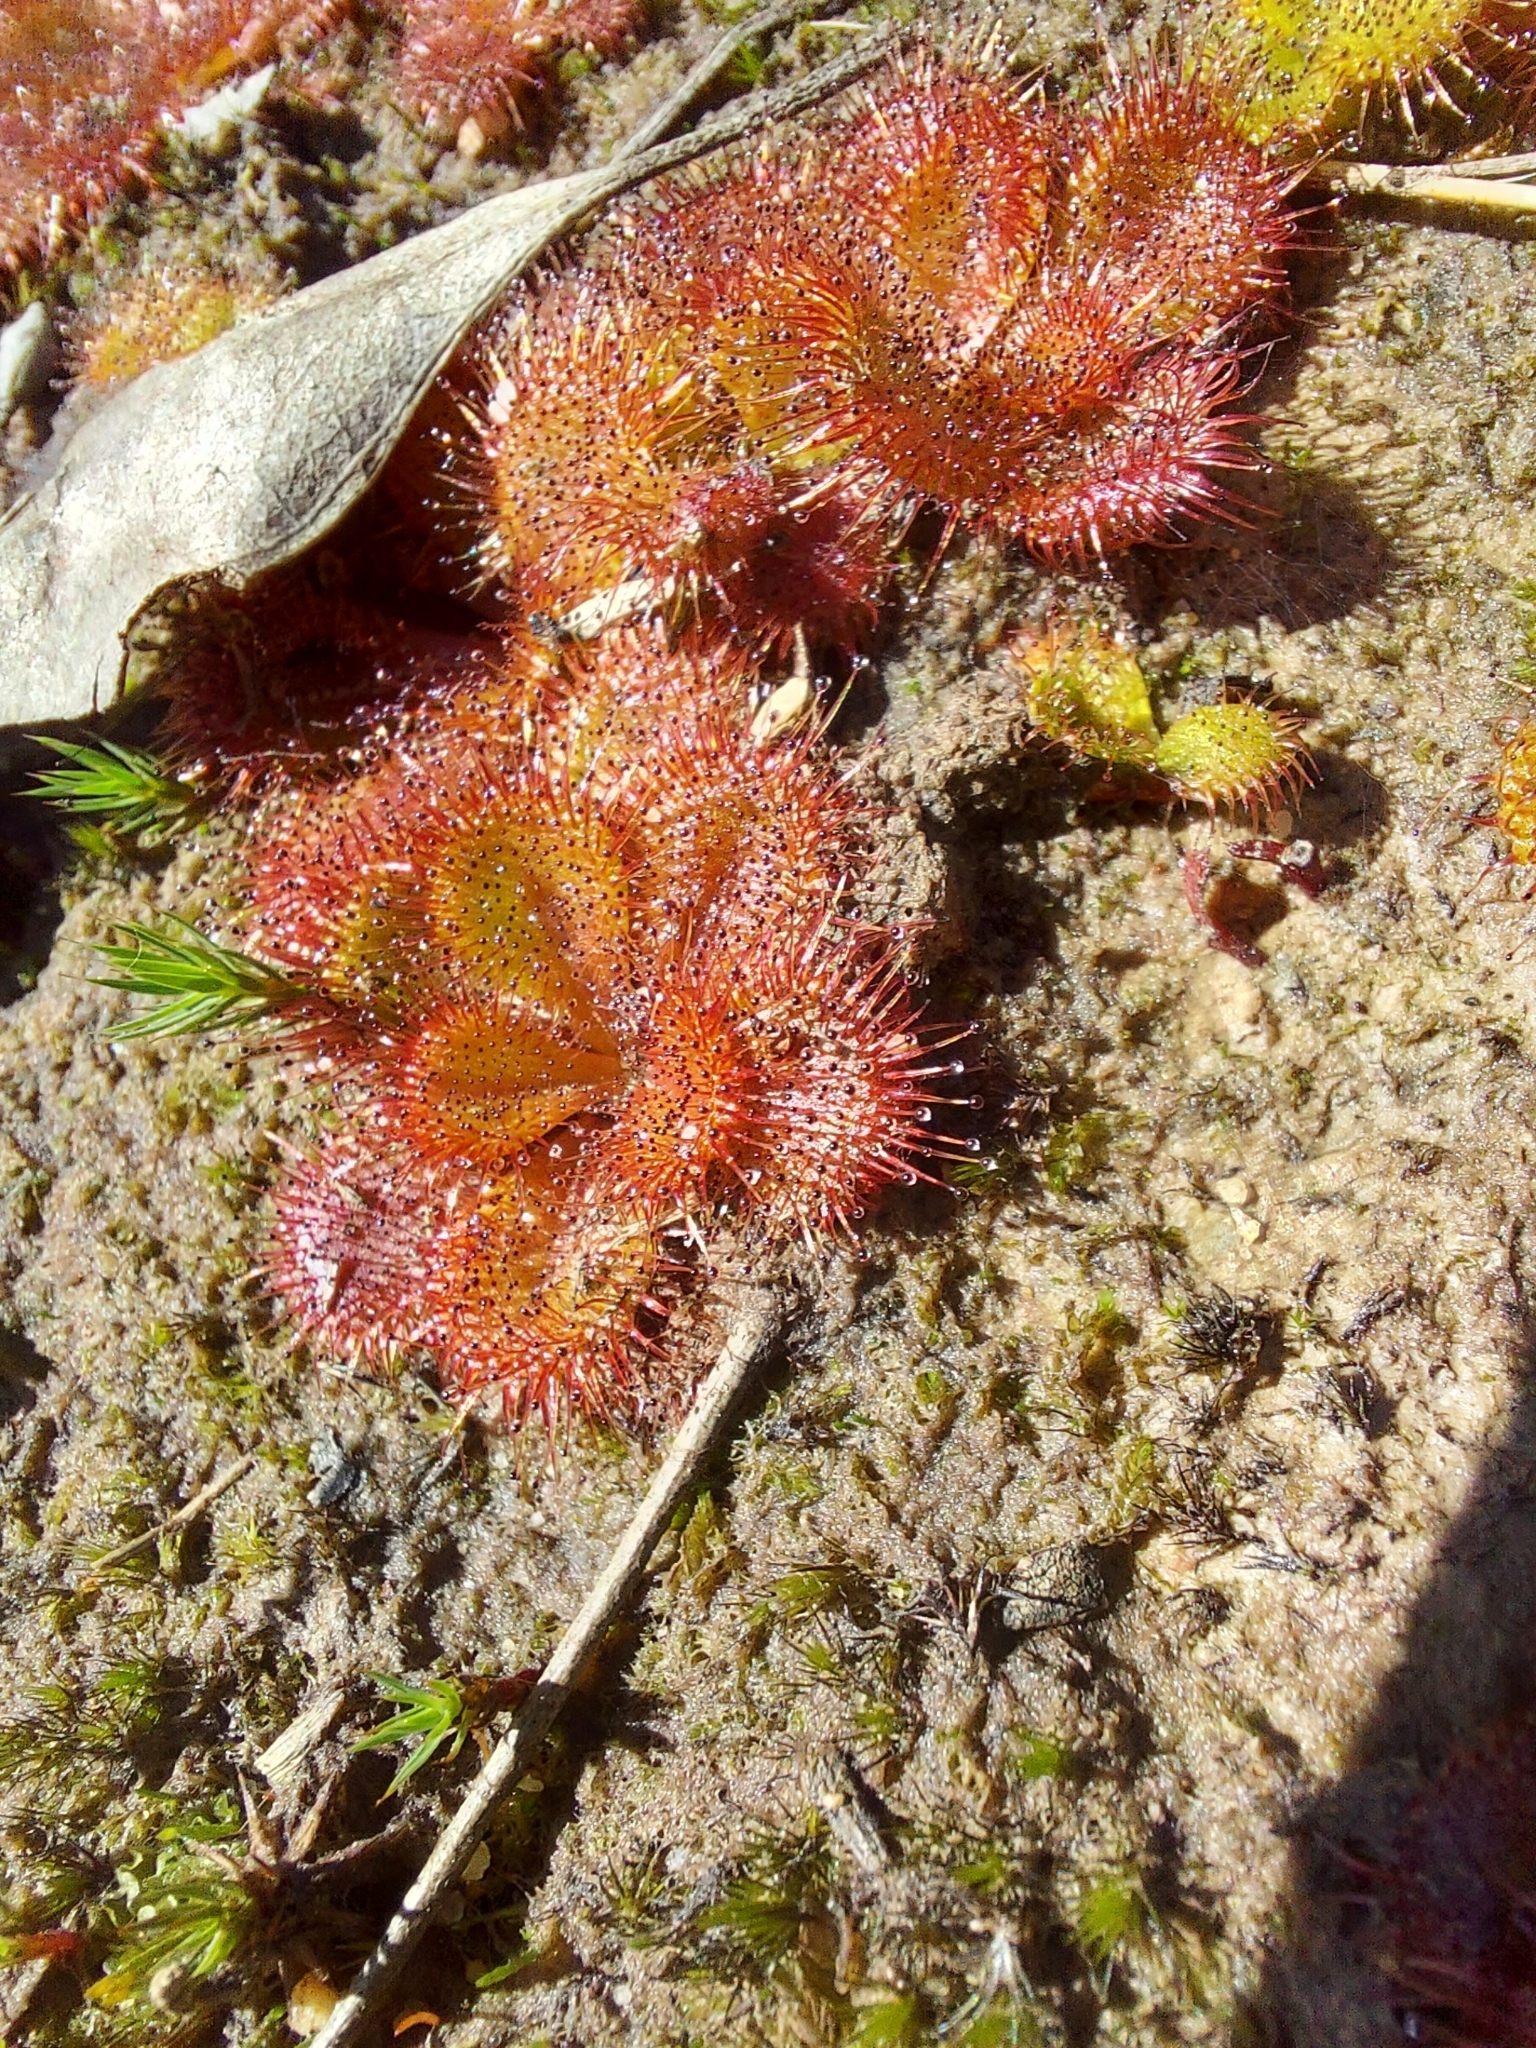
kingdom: Plantae
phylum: Tracheophyta
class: Magnoliopsida
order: Caryophyllales
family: Droseraceae
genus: Drosera
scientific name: Drosera aberrans
